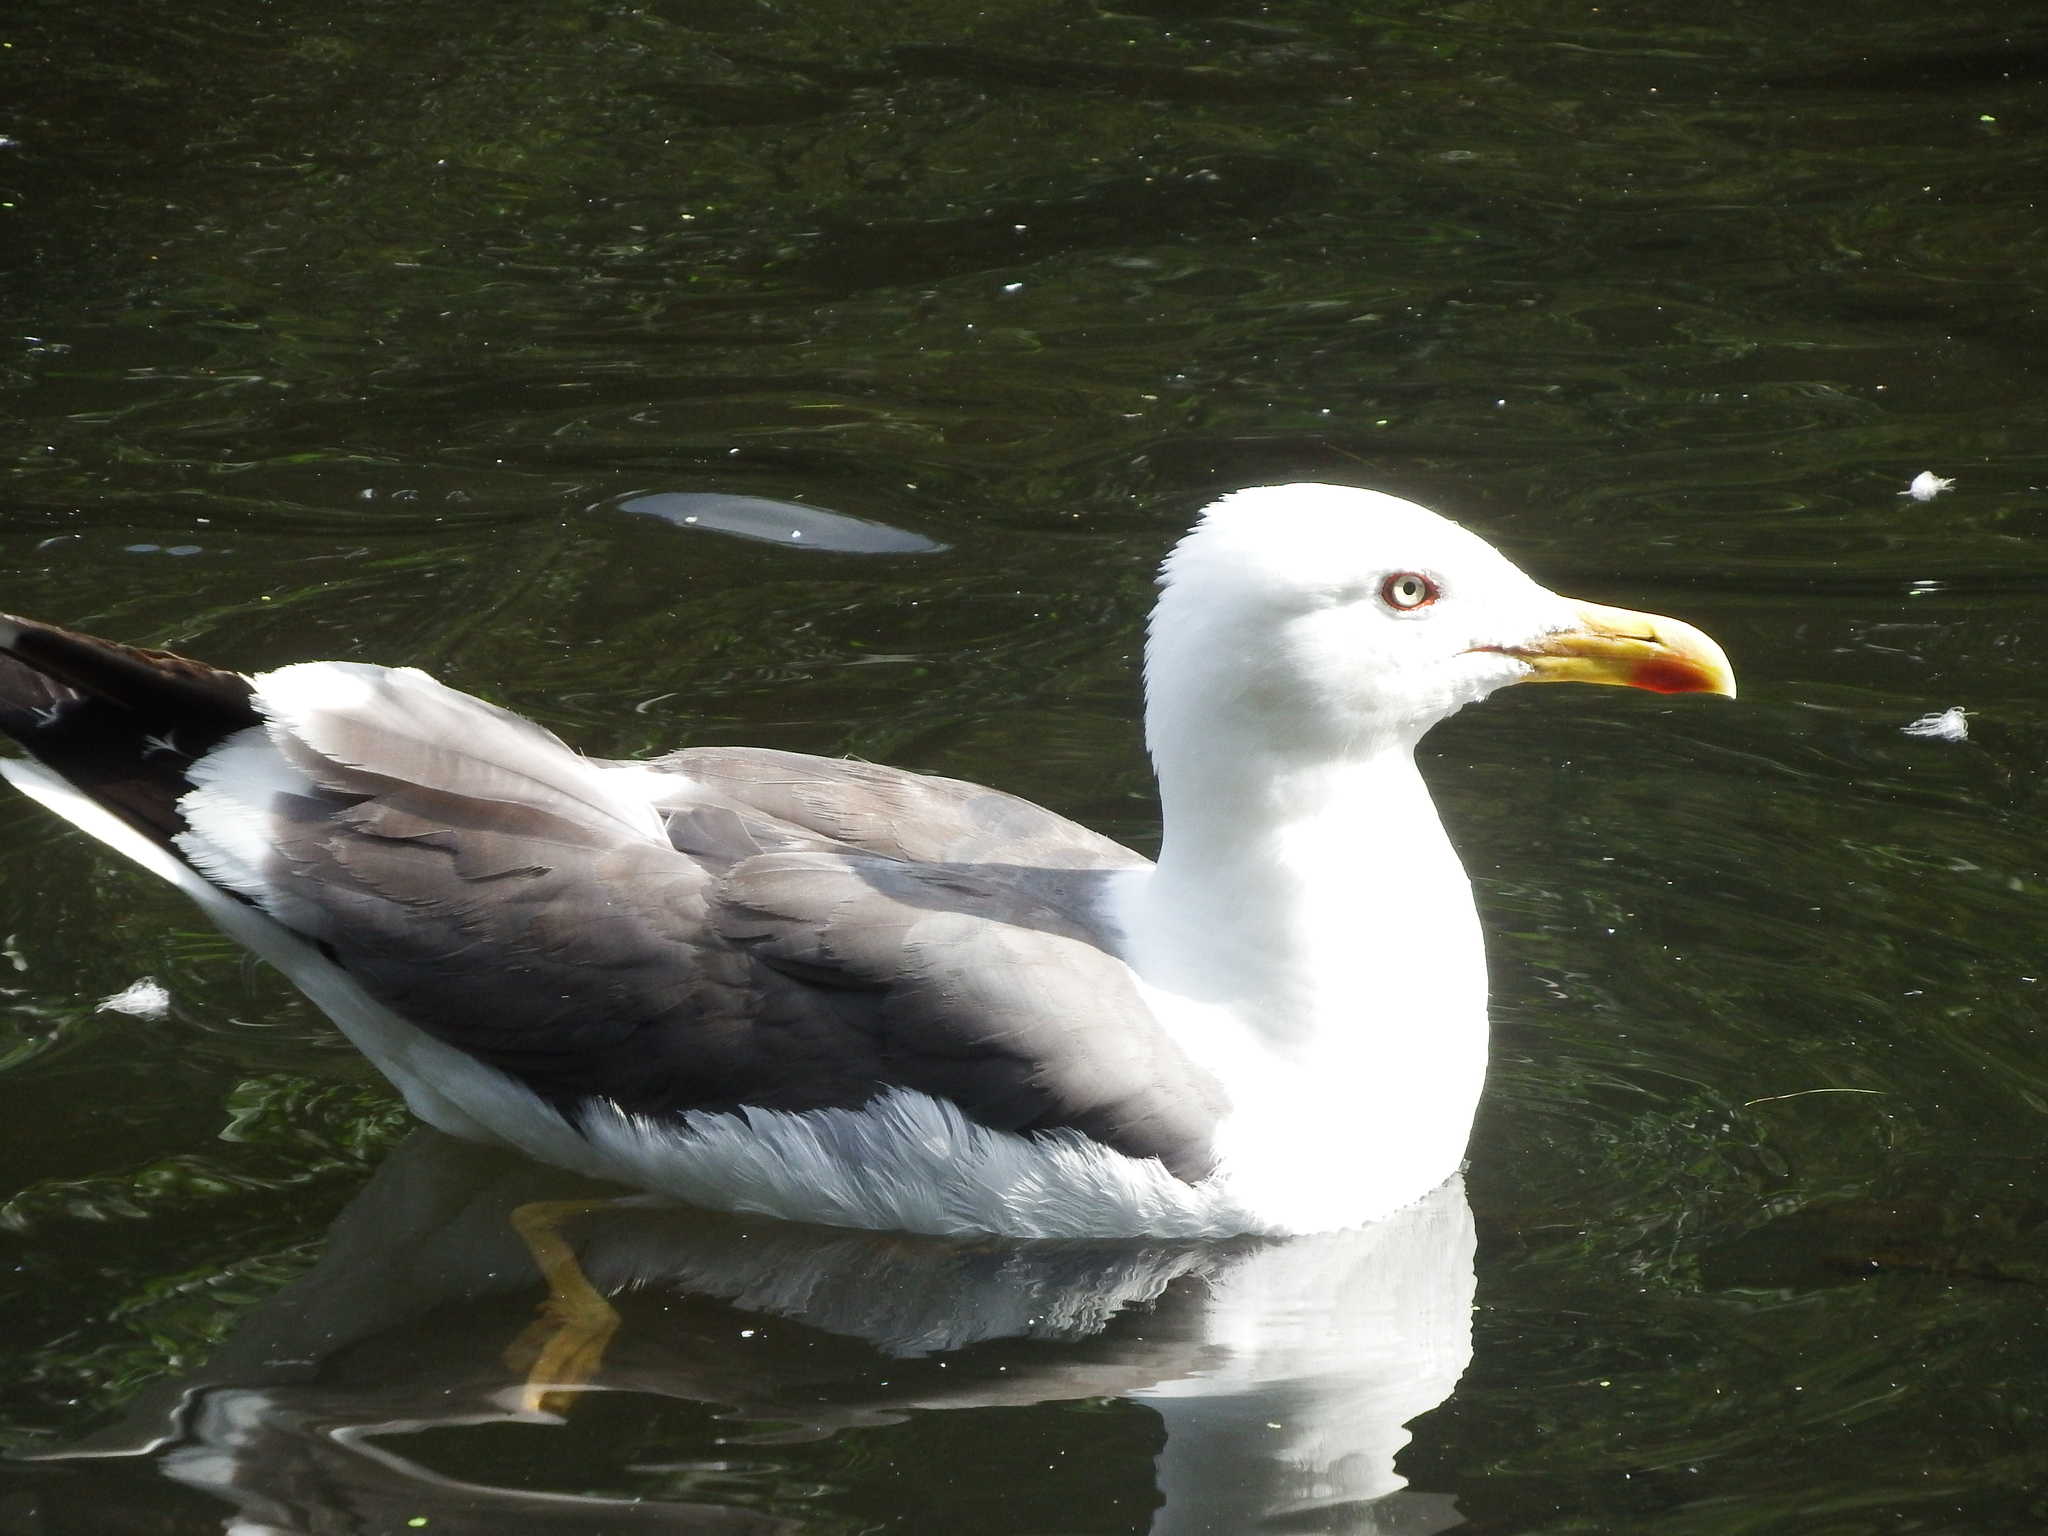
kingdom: Animalia
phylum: Chordata
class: Aves
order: Charadriiformes
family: Laridae
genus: Larus
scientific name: Larus fuscus
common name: Lesser black-backed gull
